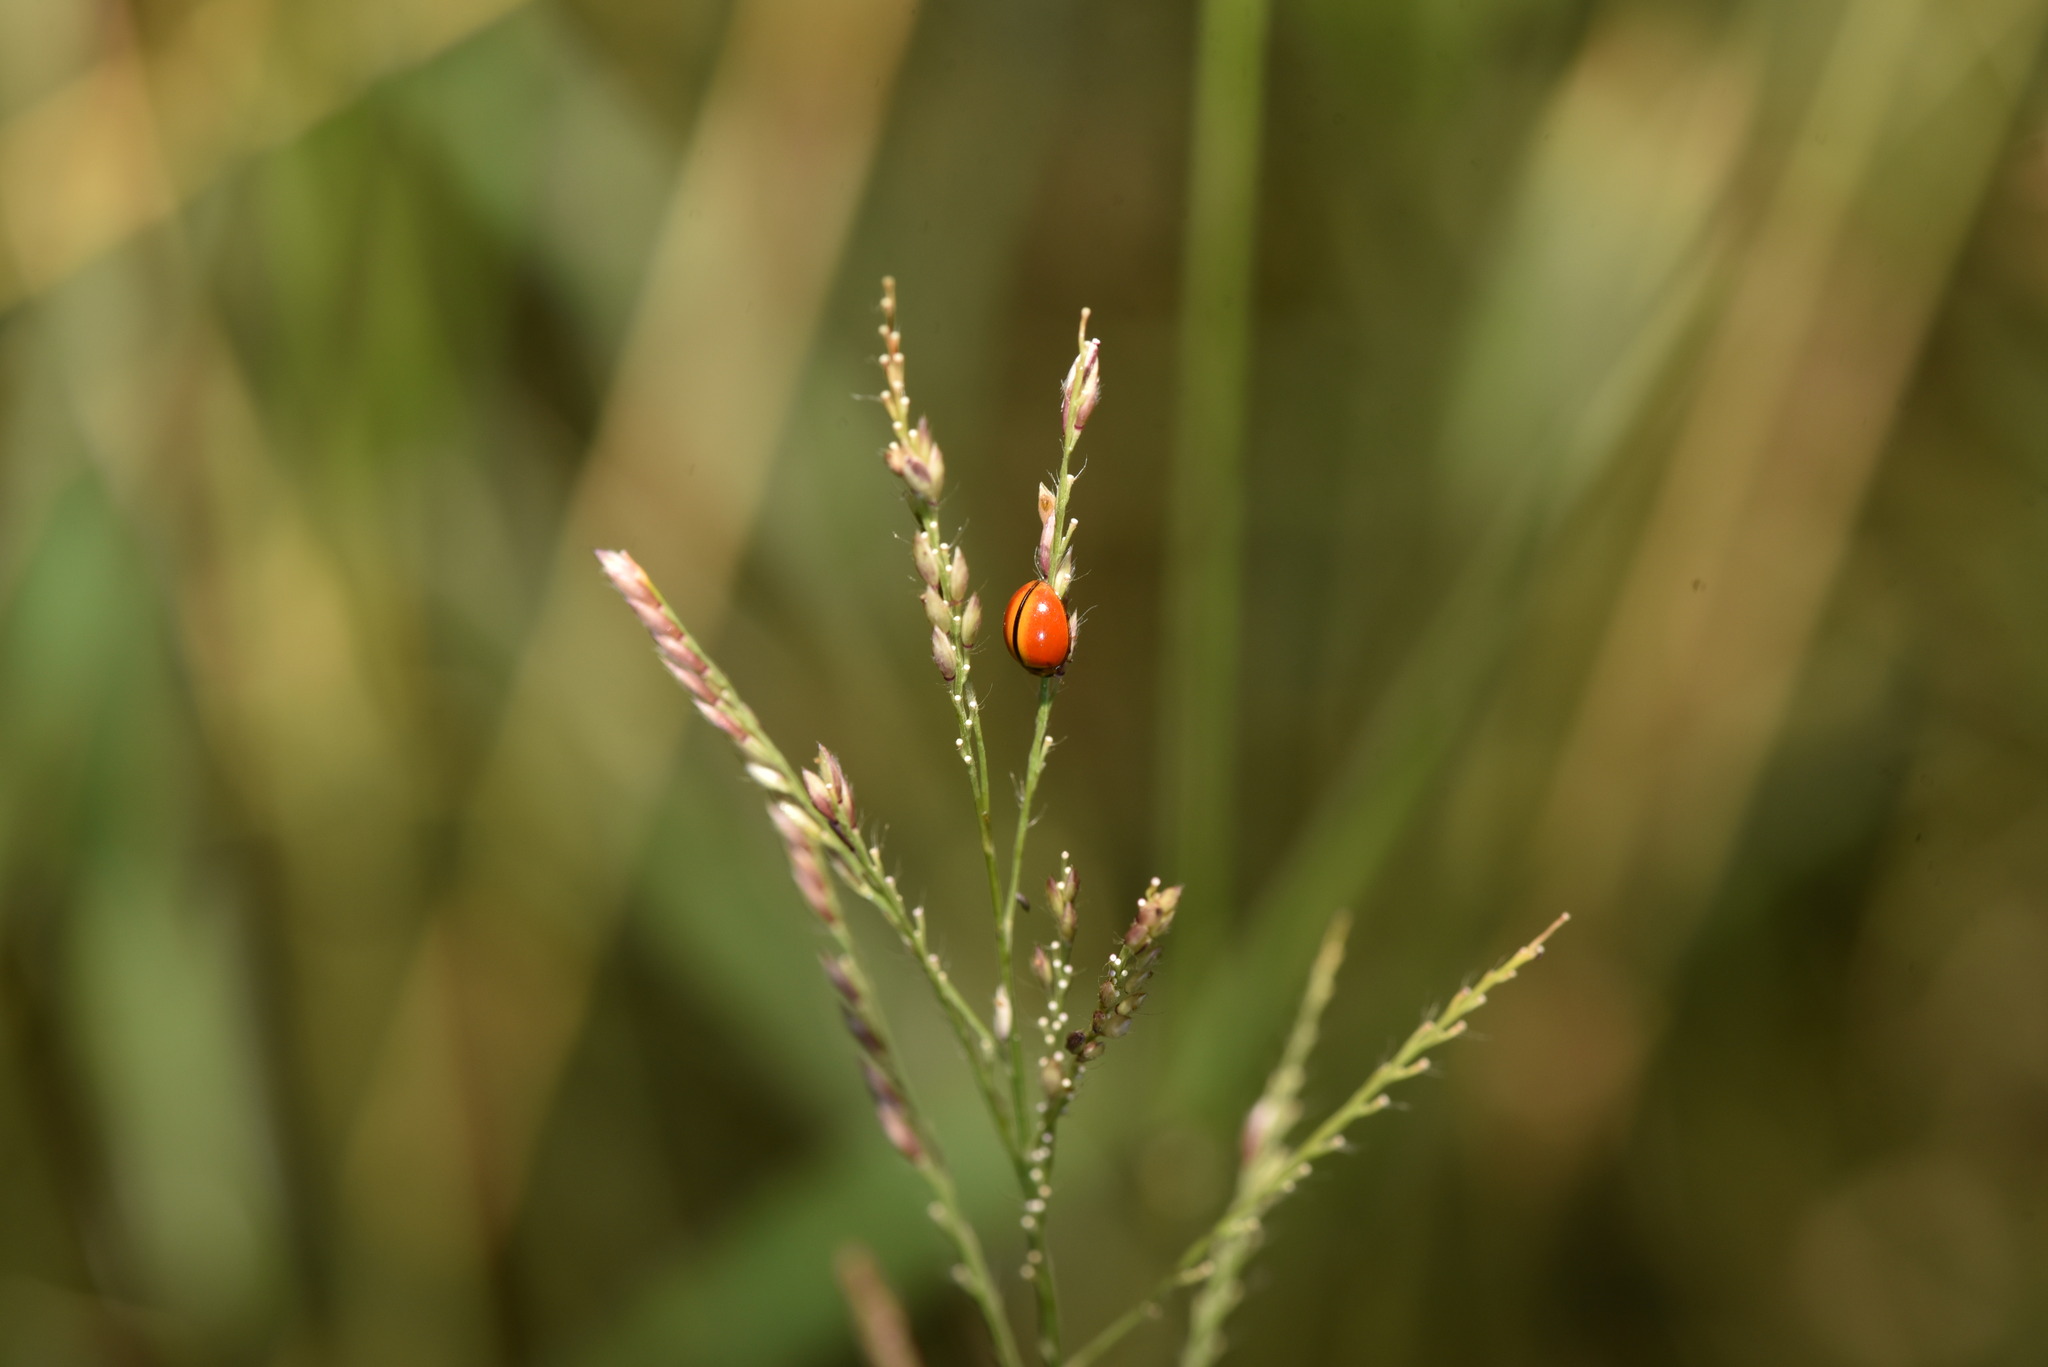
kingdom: Animalia
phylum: Arthropoda
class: Insecta
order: Coleoptera
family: Coccinellidae
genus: Micraspis
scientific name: Micraspis discolor
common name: Lady beetle
